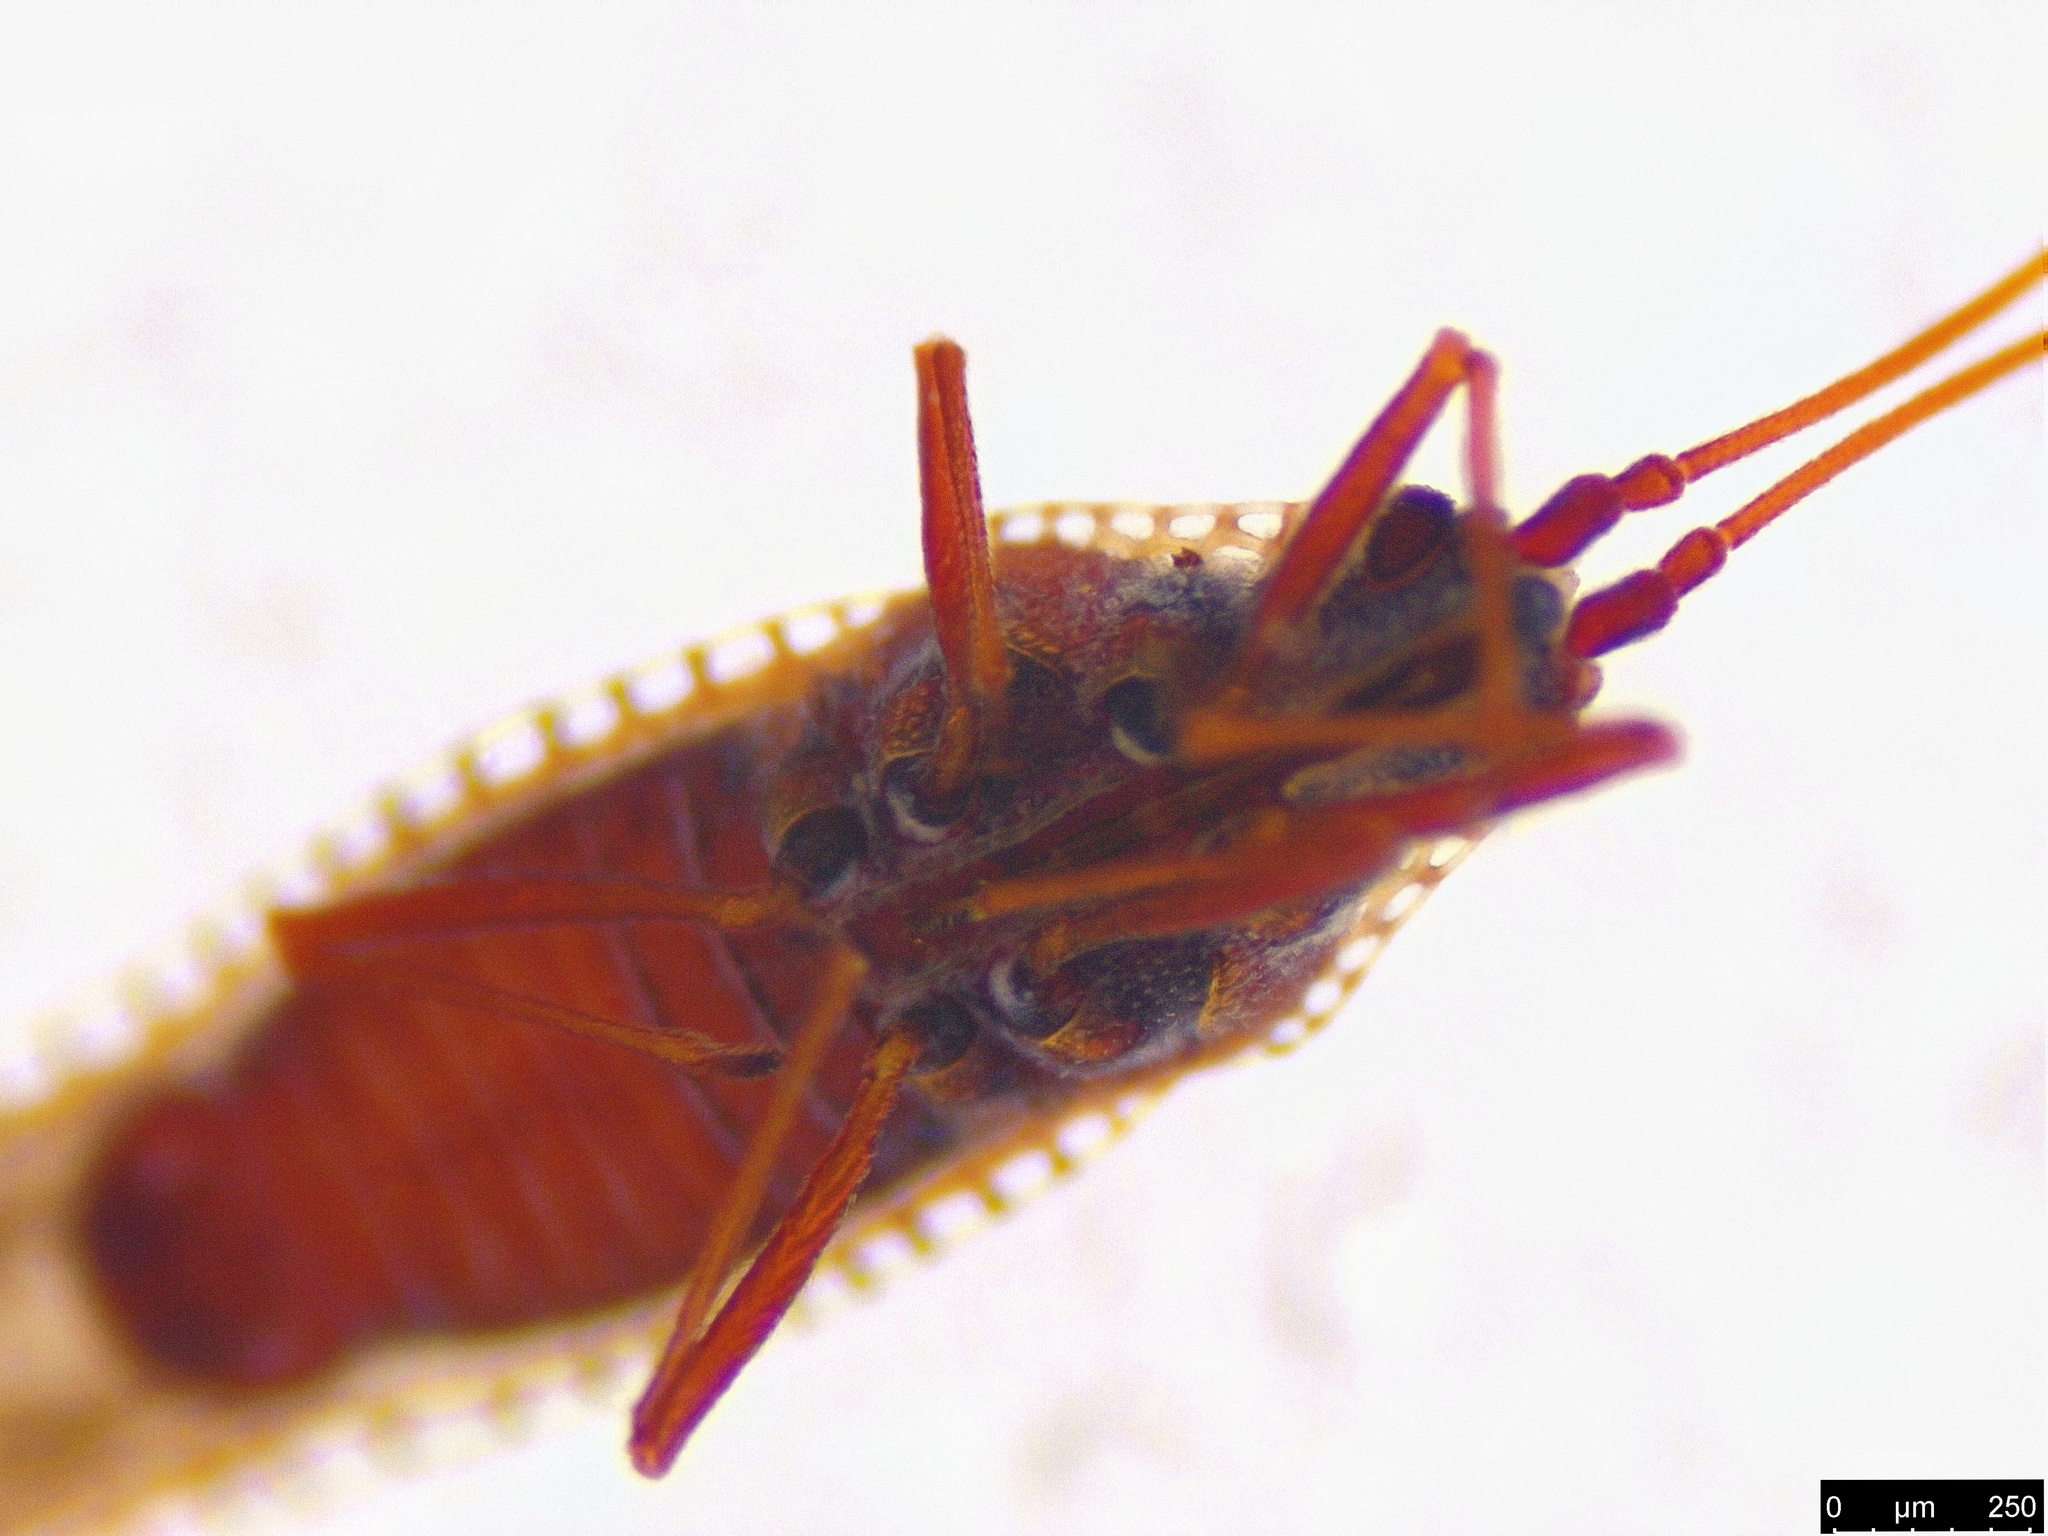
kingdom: Animalia
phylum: Arthropoda
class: Insecta
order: Hemiptera
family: Tingidae
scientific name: Tingidae
